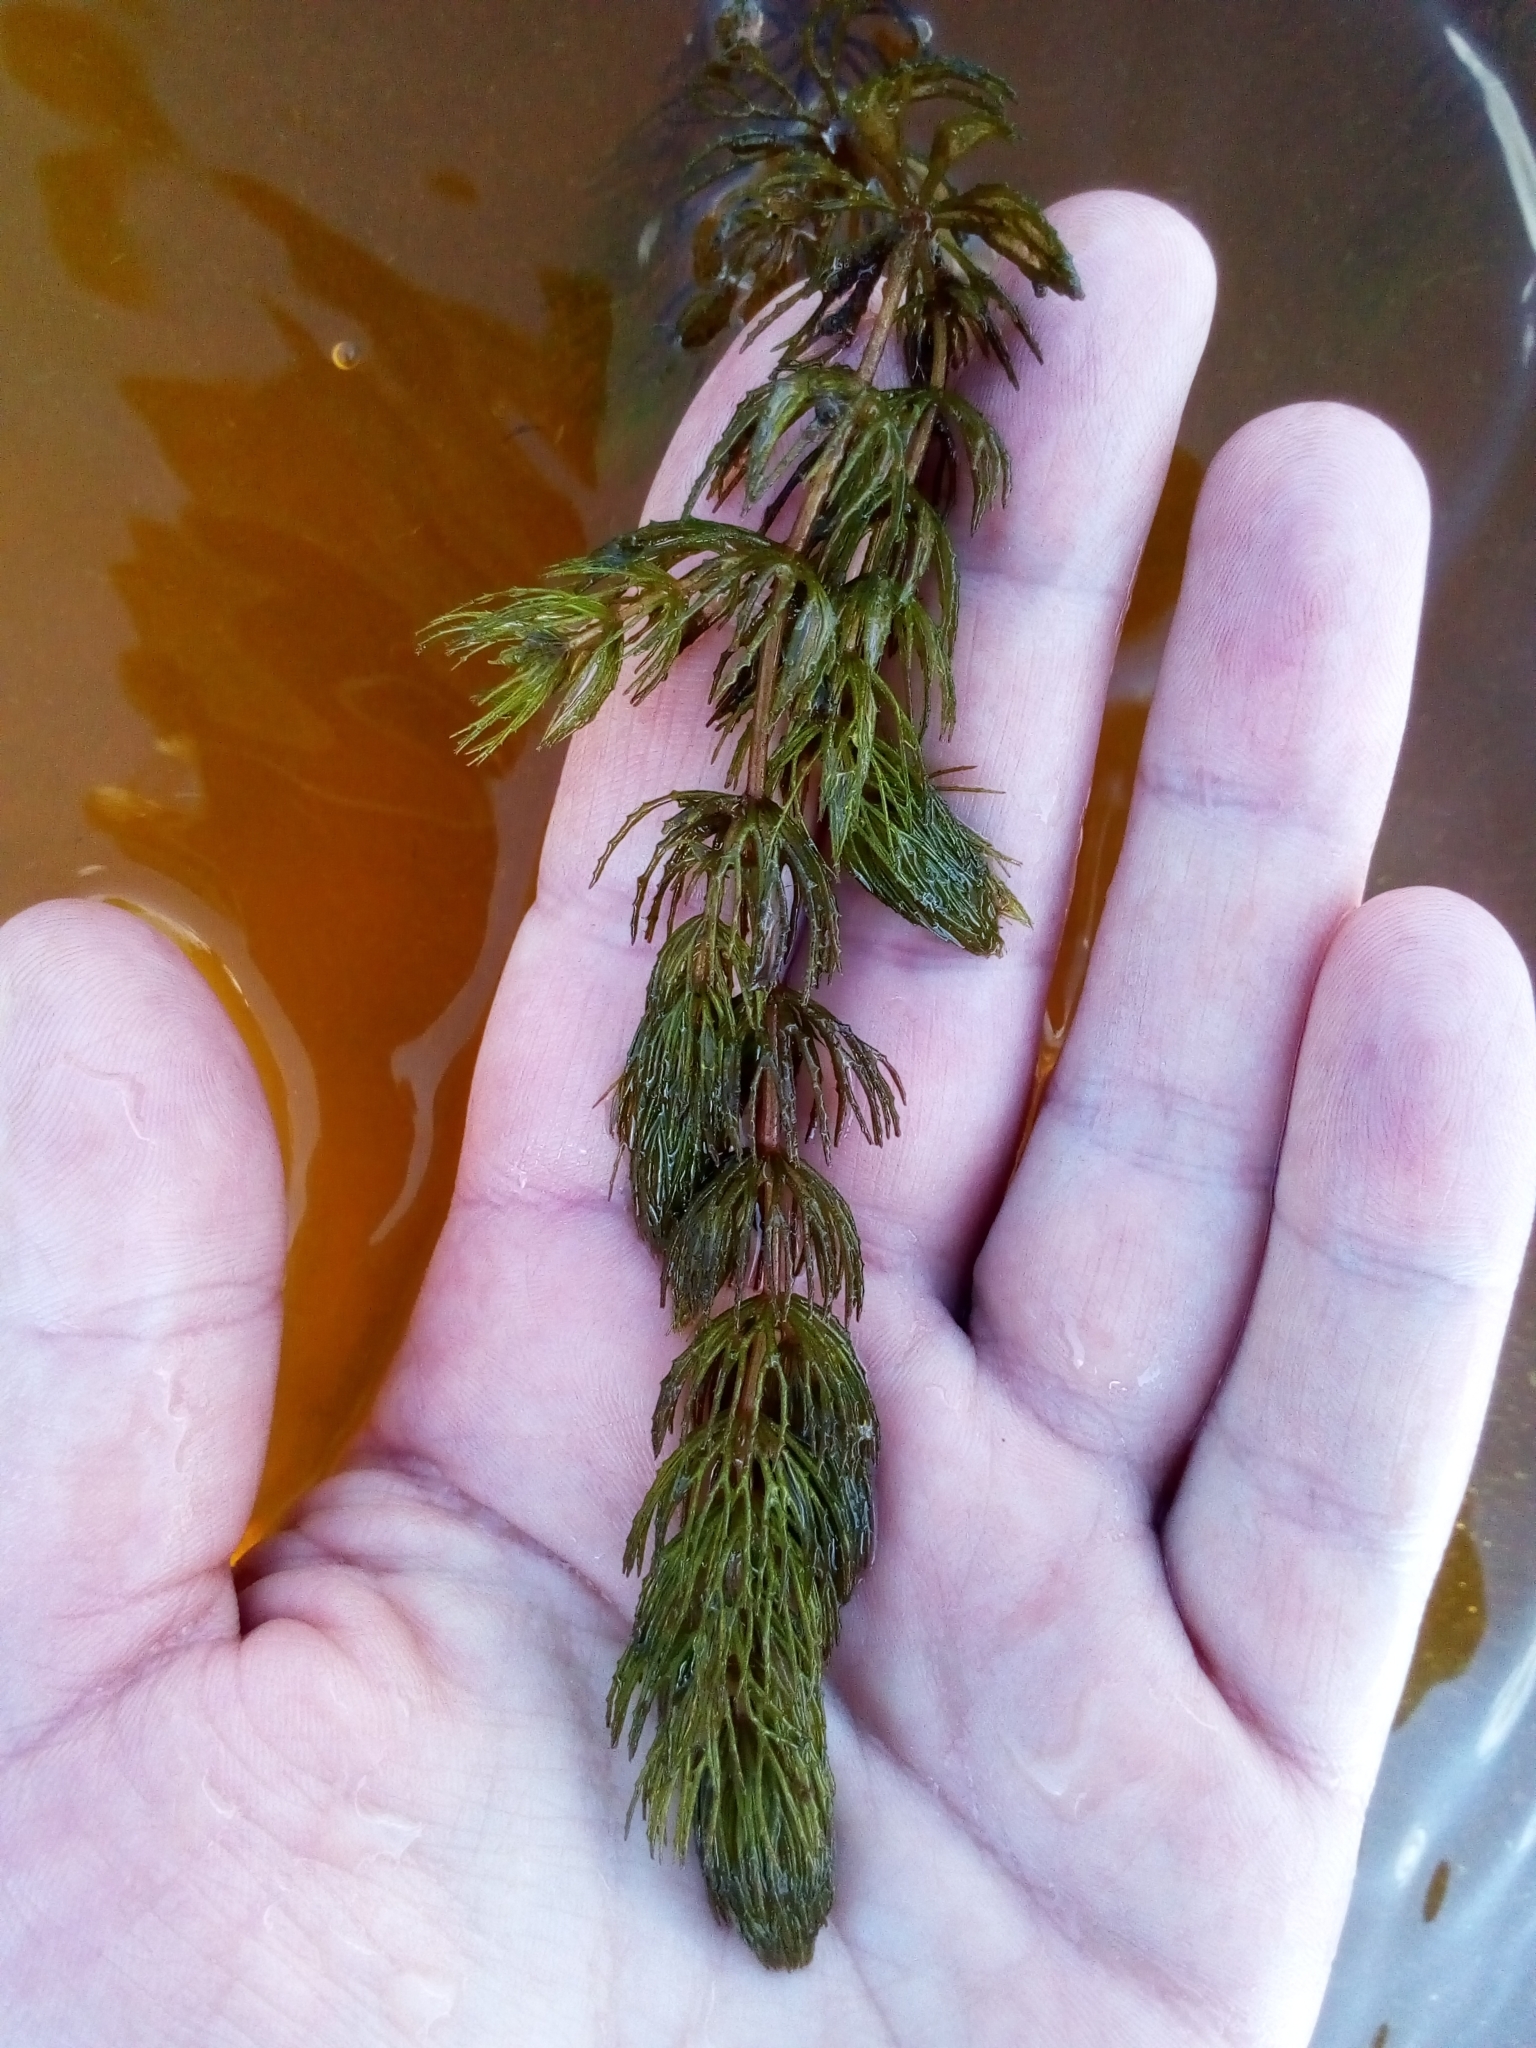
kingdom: Plantae
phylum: Tracheophyta
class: Magnoliopsida
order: Ceratophyllales
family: Ceratophyllaceae
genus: Ceratophyllum
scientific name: Ceratophyllum demersum
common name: Rigid hornwort
